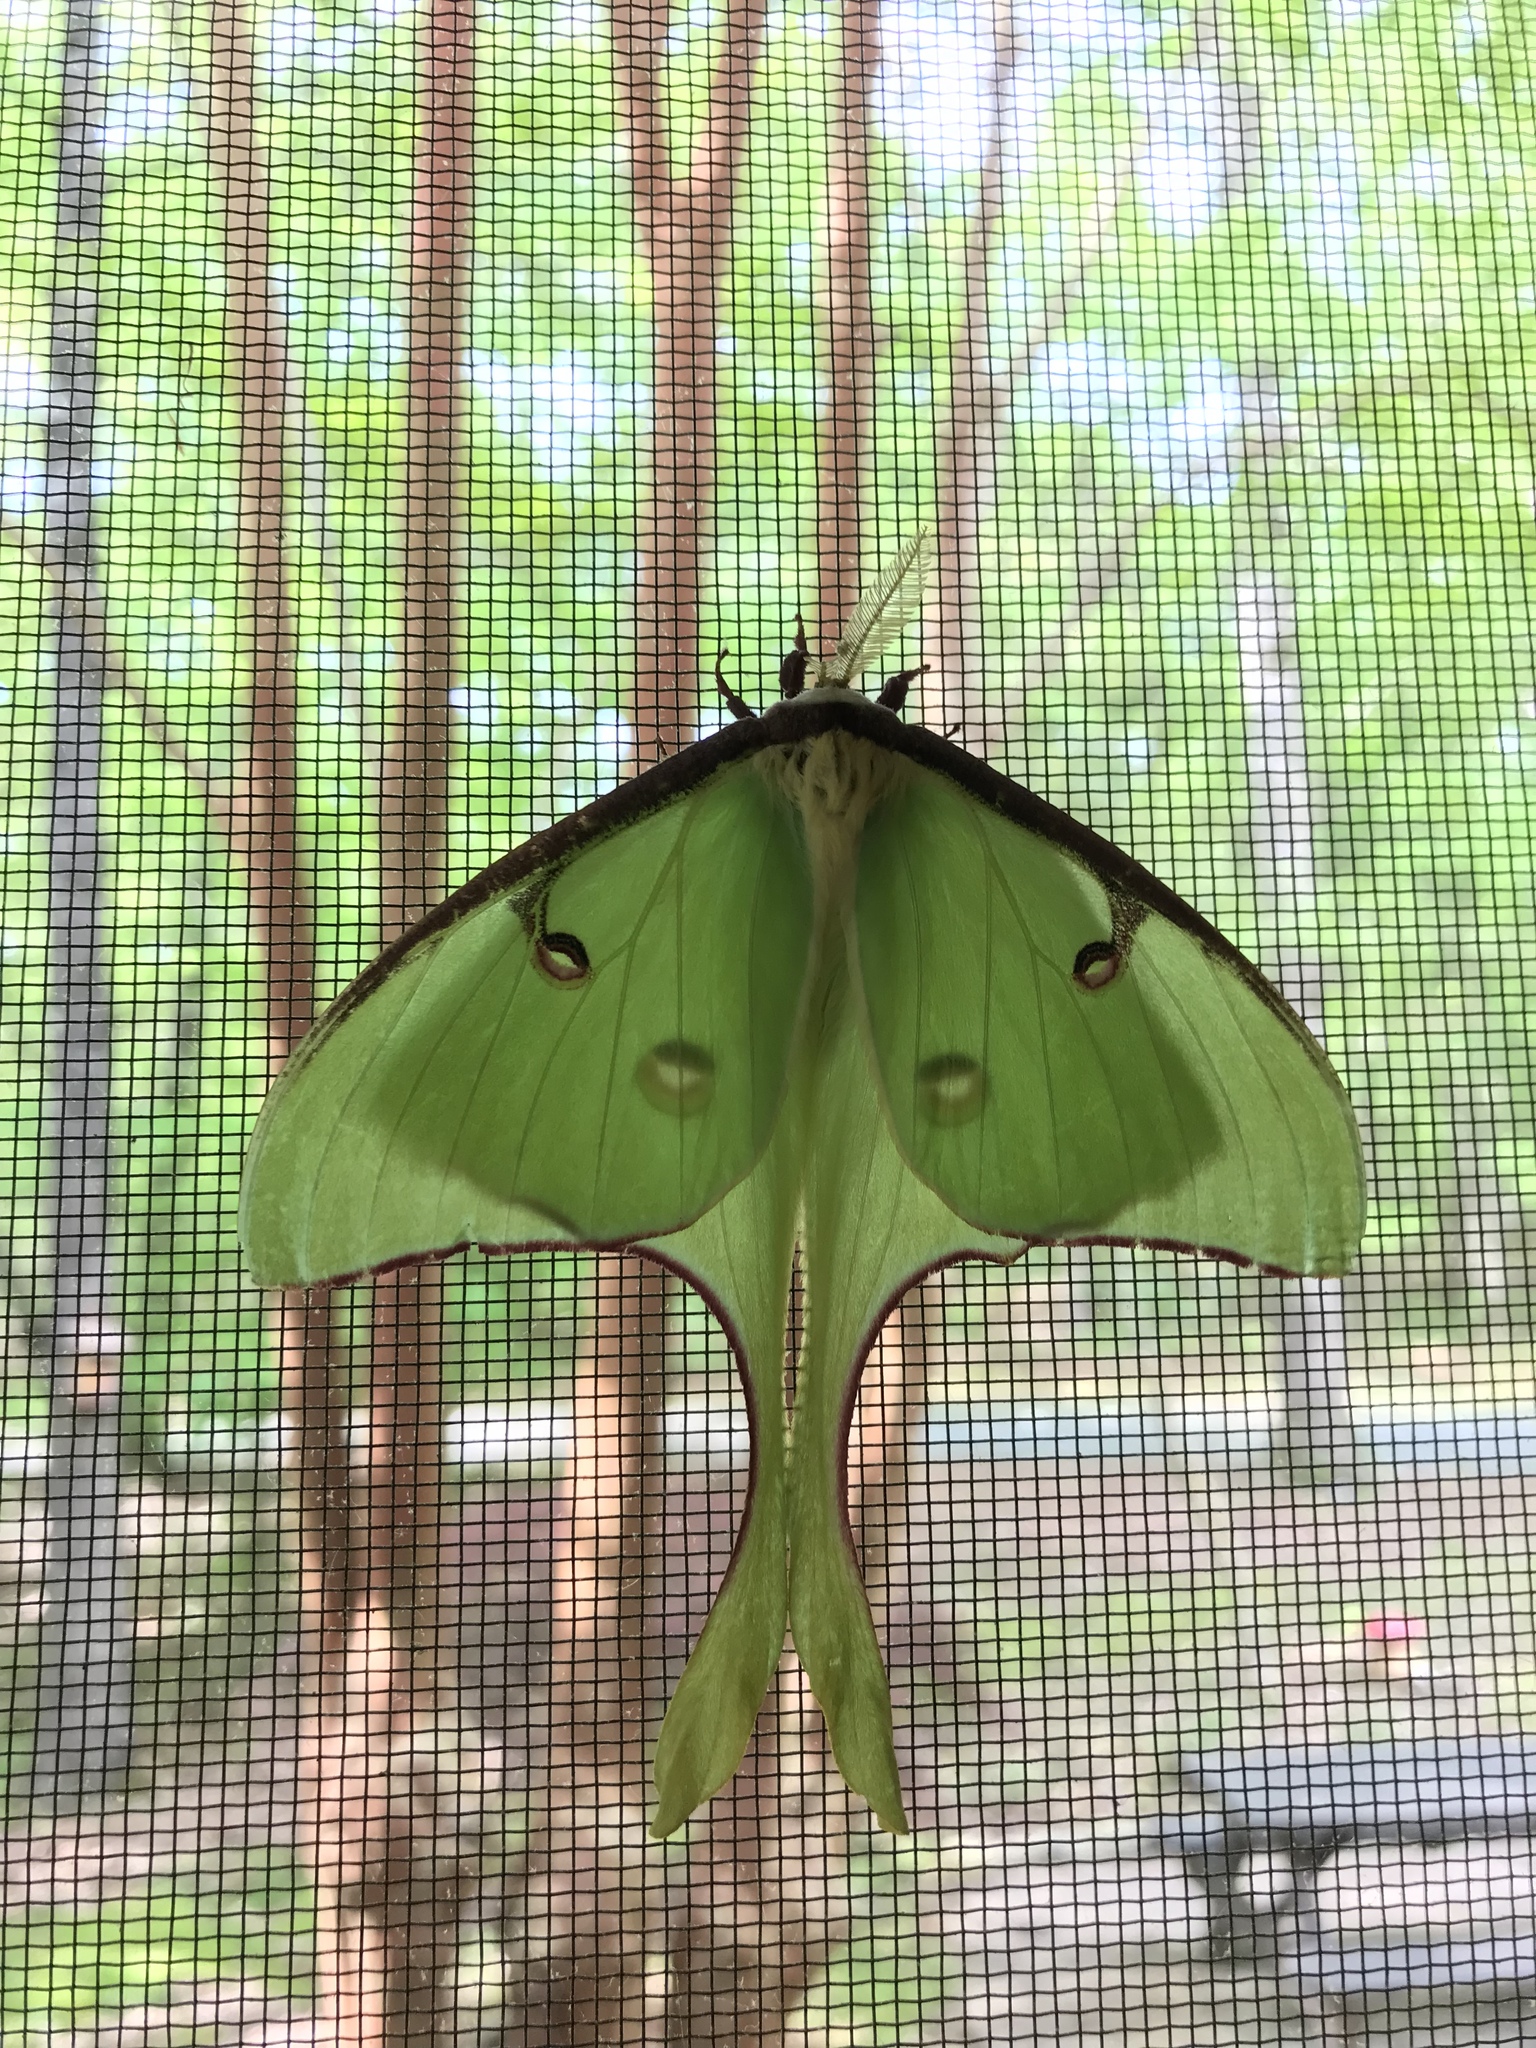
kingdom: Animalia
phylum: Arthropoda
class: Insecta
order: Lepidoptera
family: Saturniidae
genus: Actias
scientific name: Actias luna
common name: Luna moth
